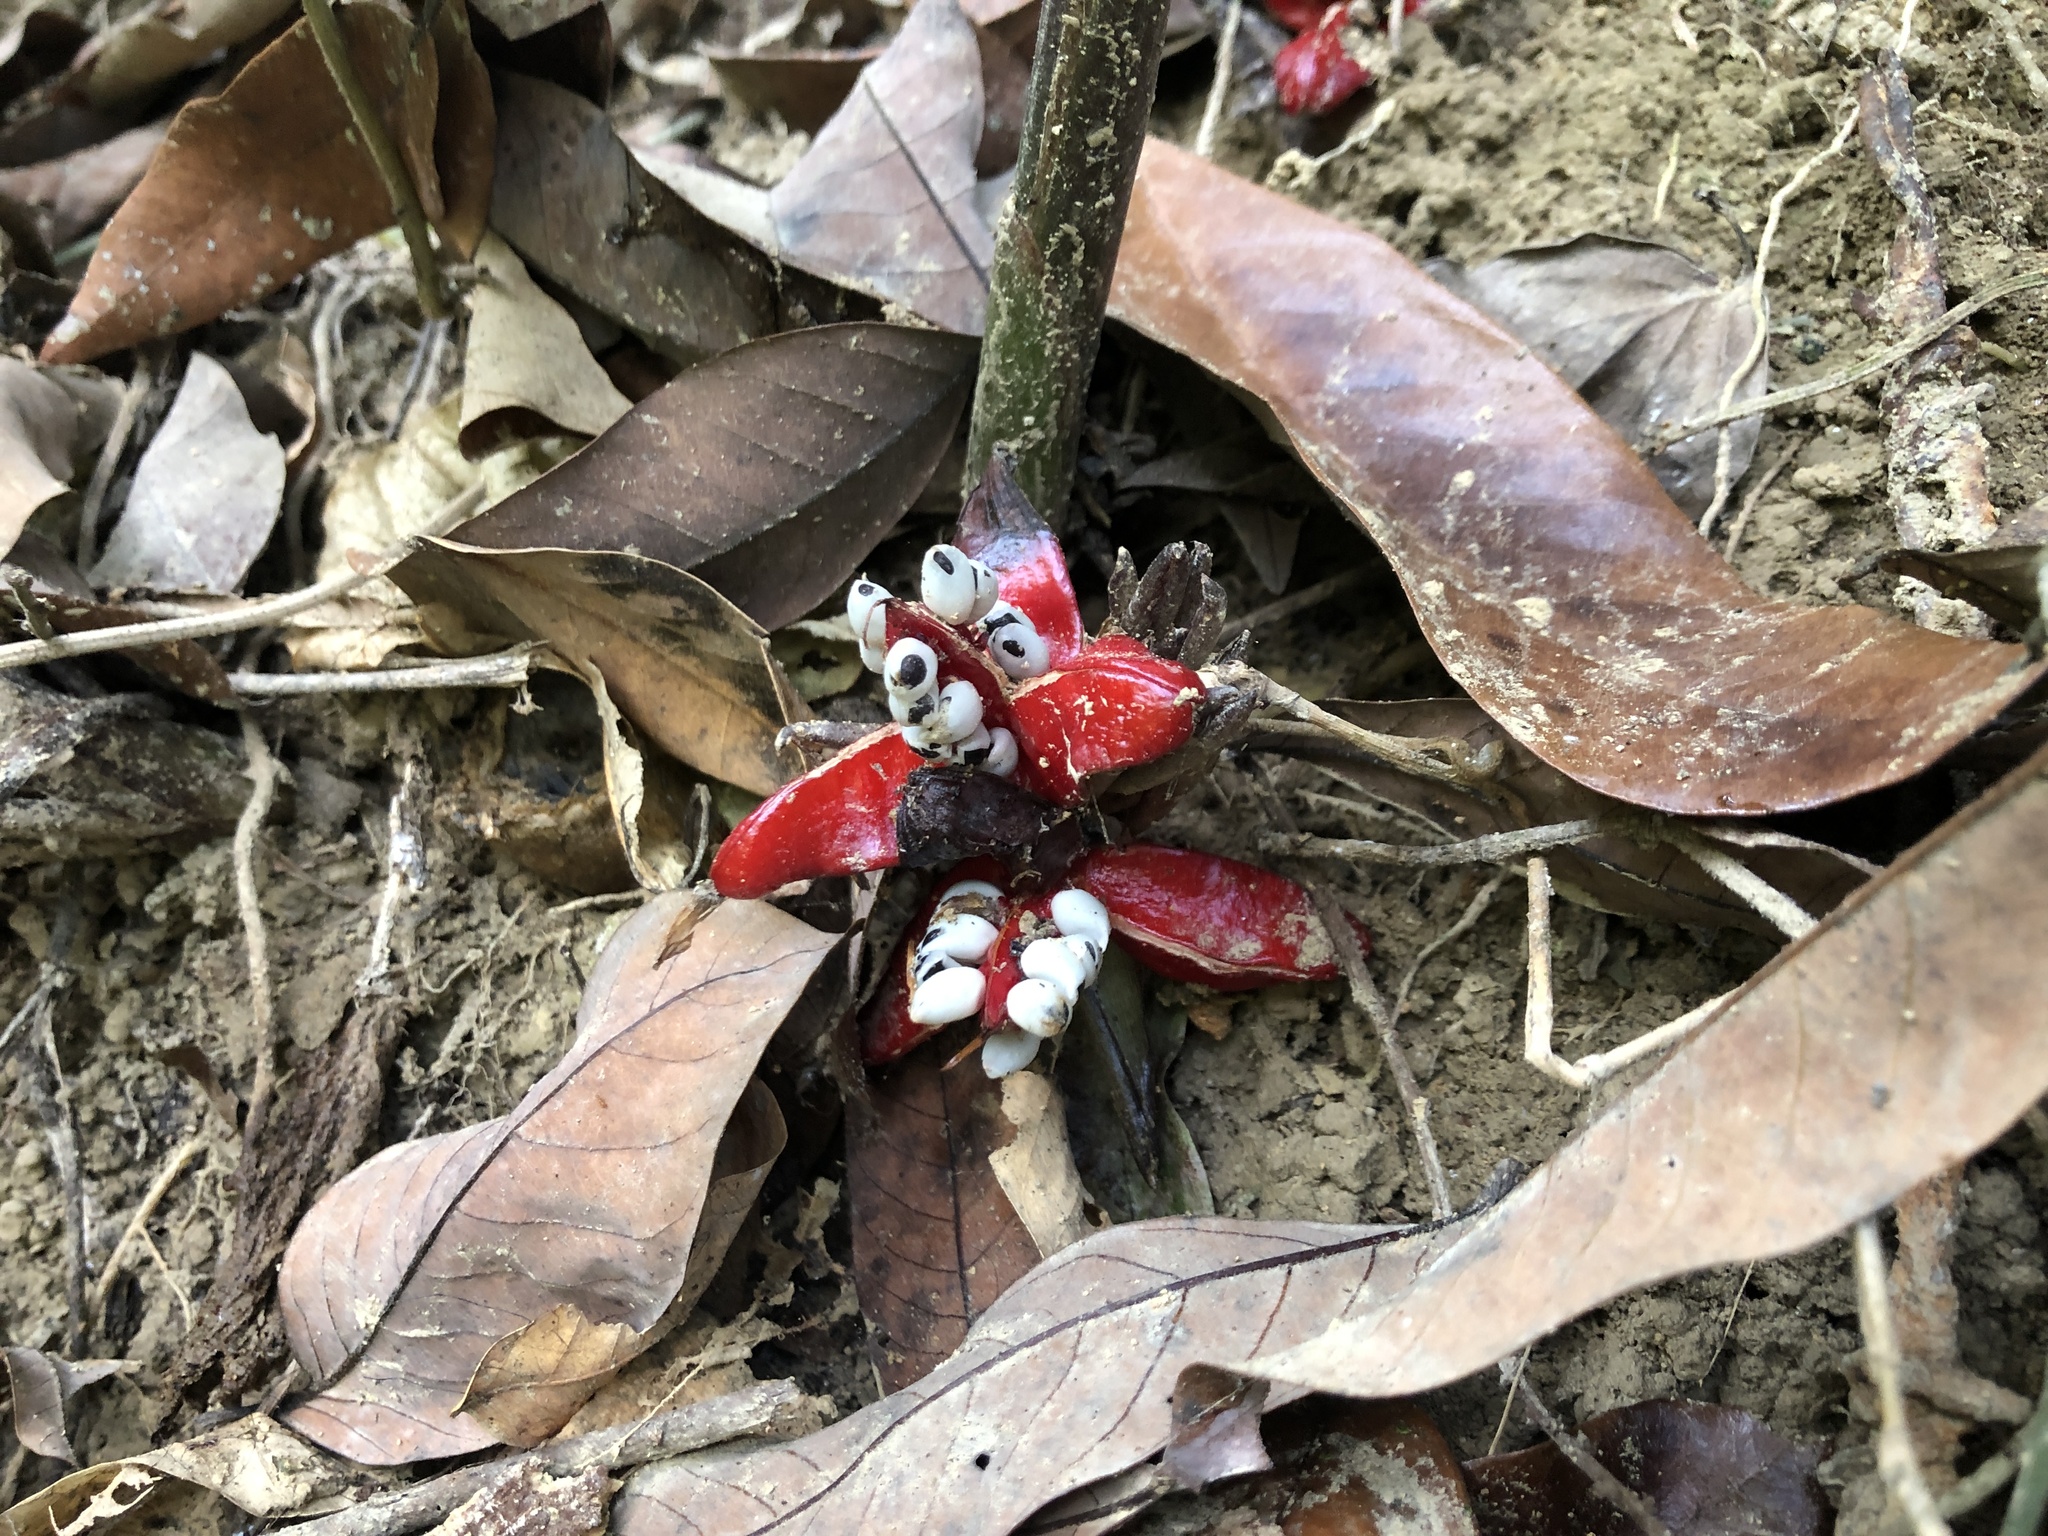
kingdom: Plantae
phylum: Tracheophyta
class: Liliopsida
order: Zingiberales
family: Zingiberaceae
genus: Zingiber
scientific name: Zingiber kawagoii
